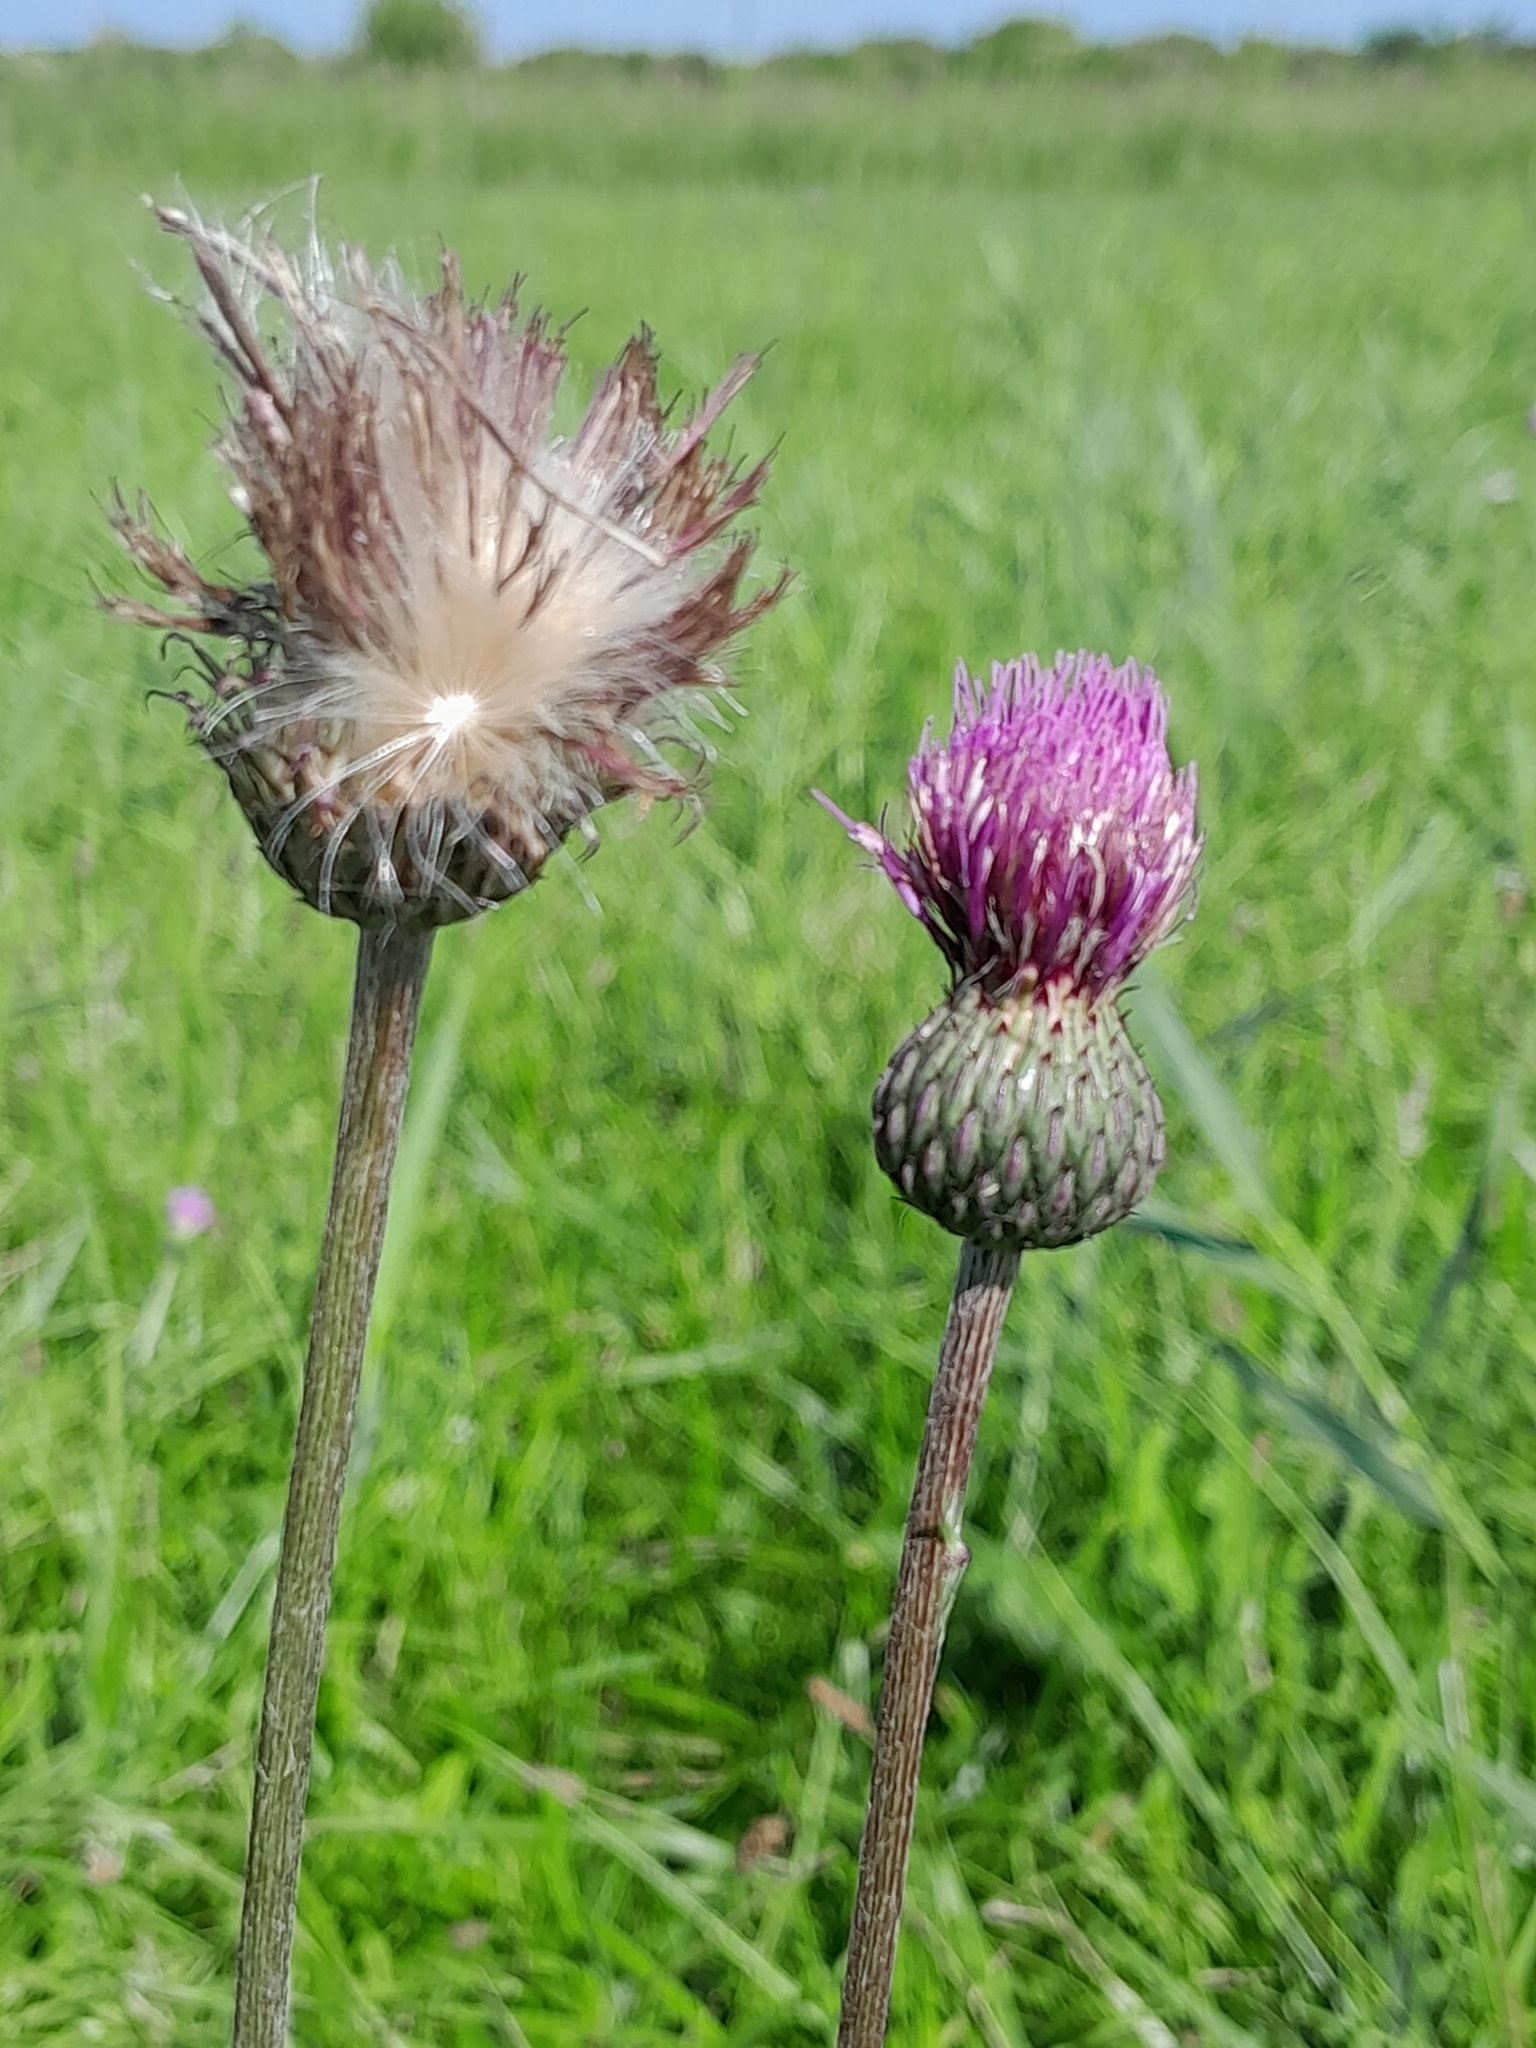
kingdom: Plantae
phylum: Tracheophyta
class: Magnoliopsida
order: Asterales
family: Asteraceae
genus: Cirsium
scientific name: Cirsium canum
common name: Queen anne's thistle
